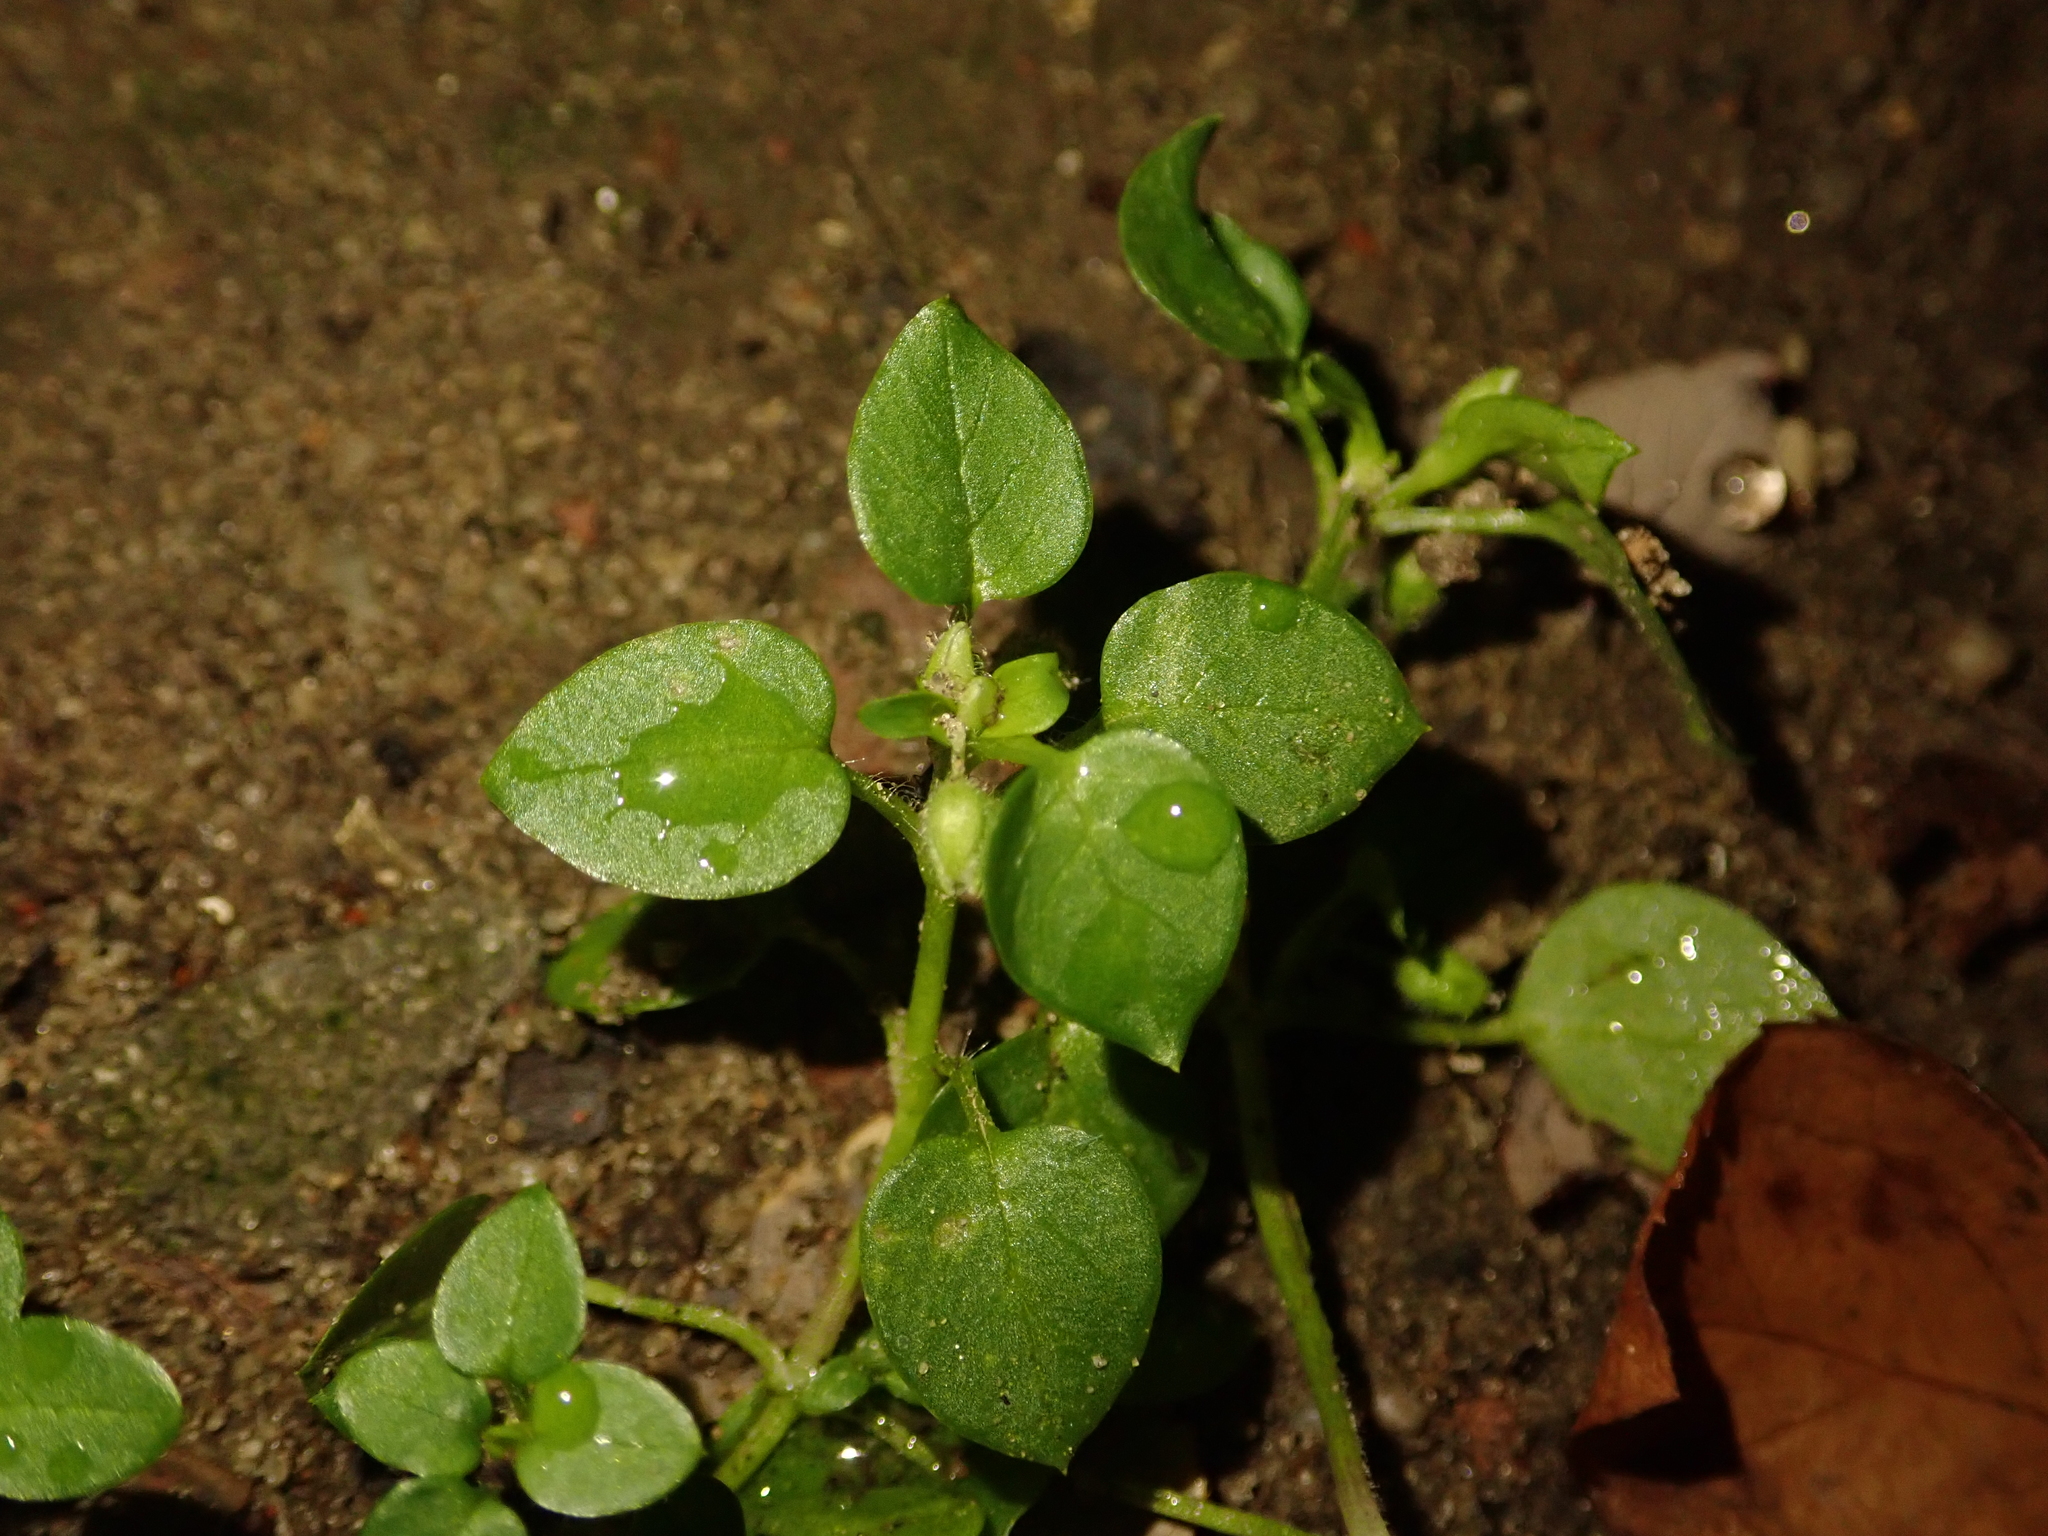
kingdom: Plantae
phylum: Tracheophyta
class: Magnoliopsida
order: Caryophyllales
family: Caryophyllaceae
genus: Stellaria
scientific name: Stellaria media
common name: Common chickweed
